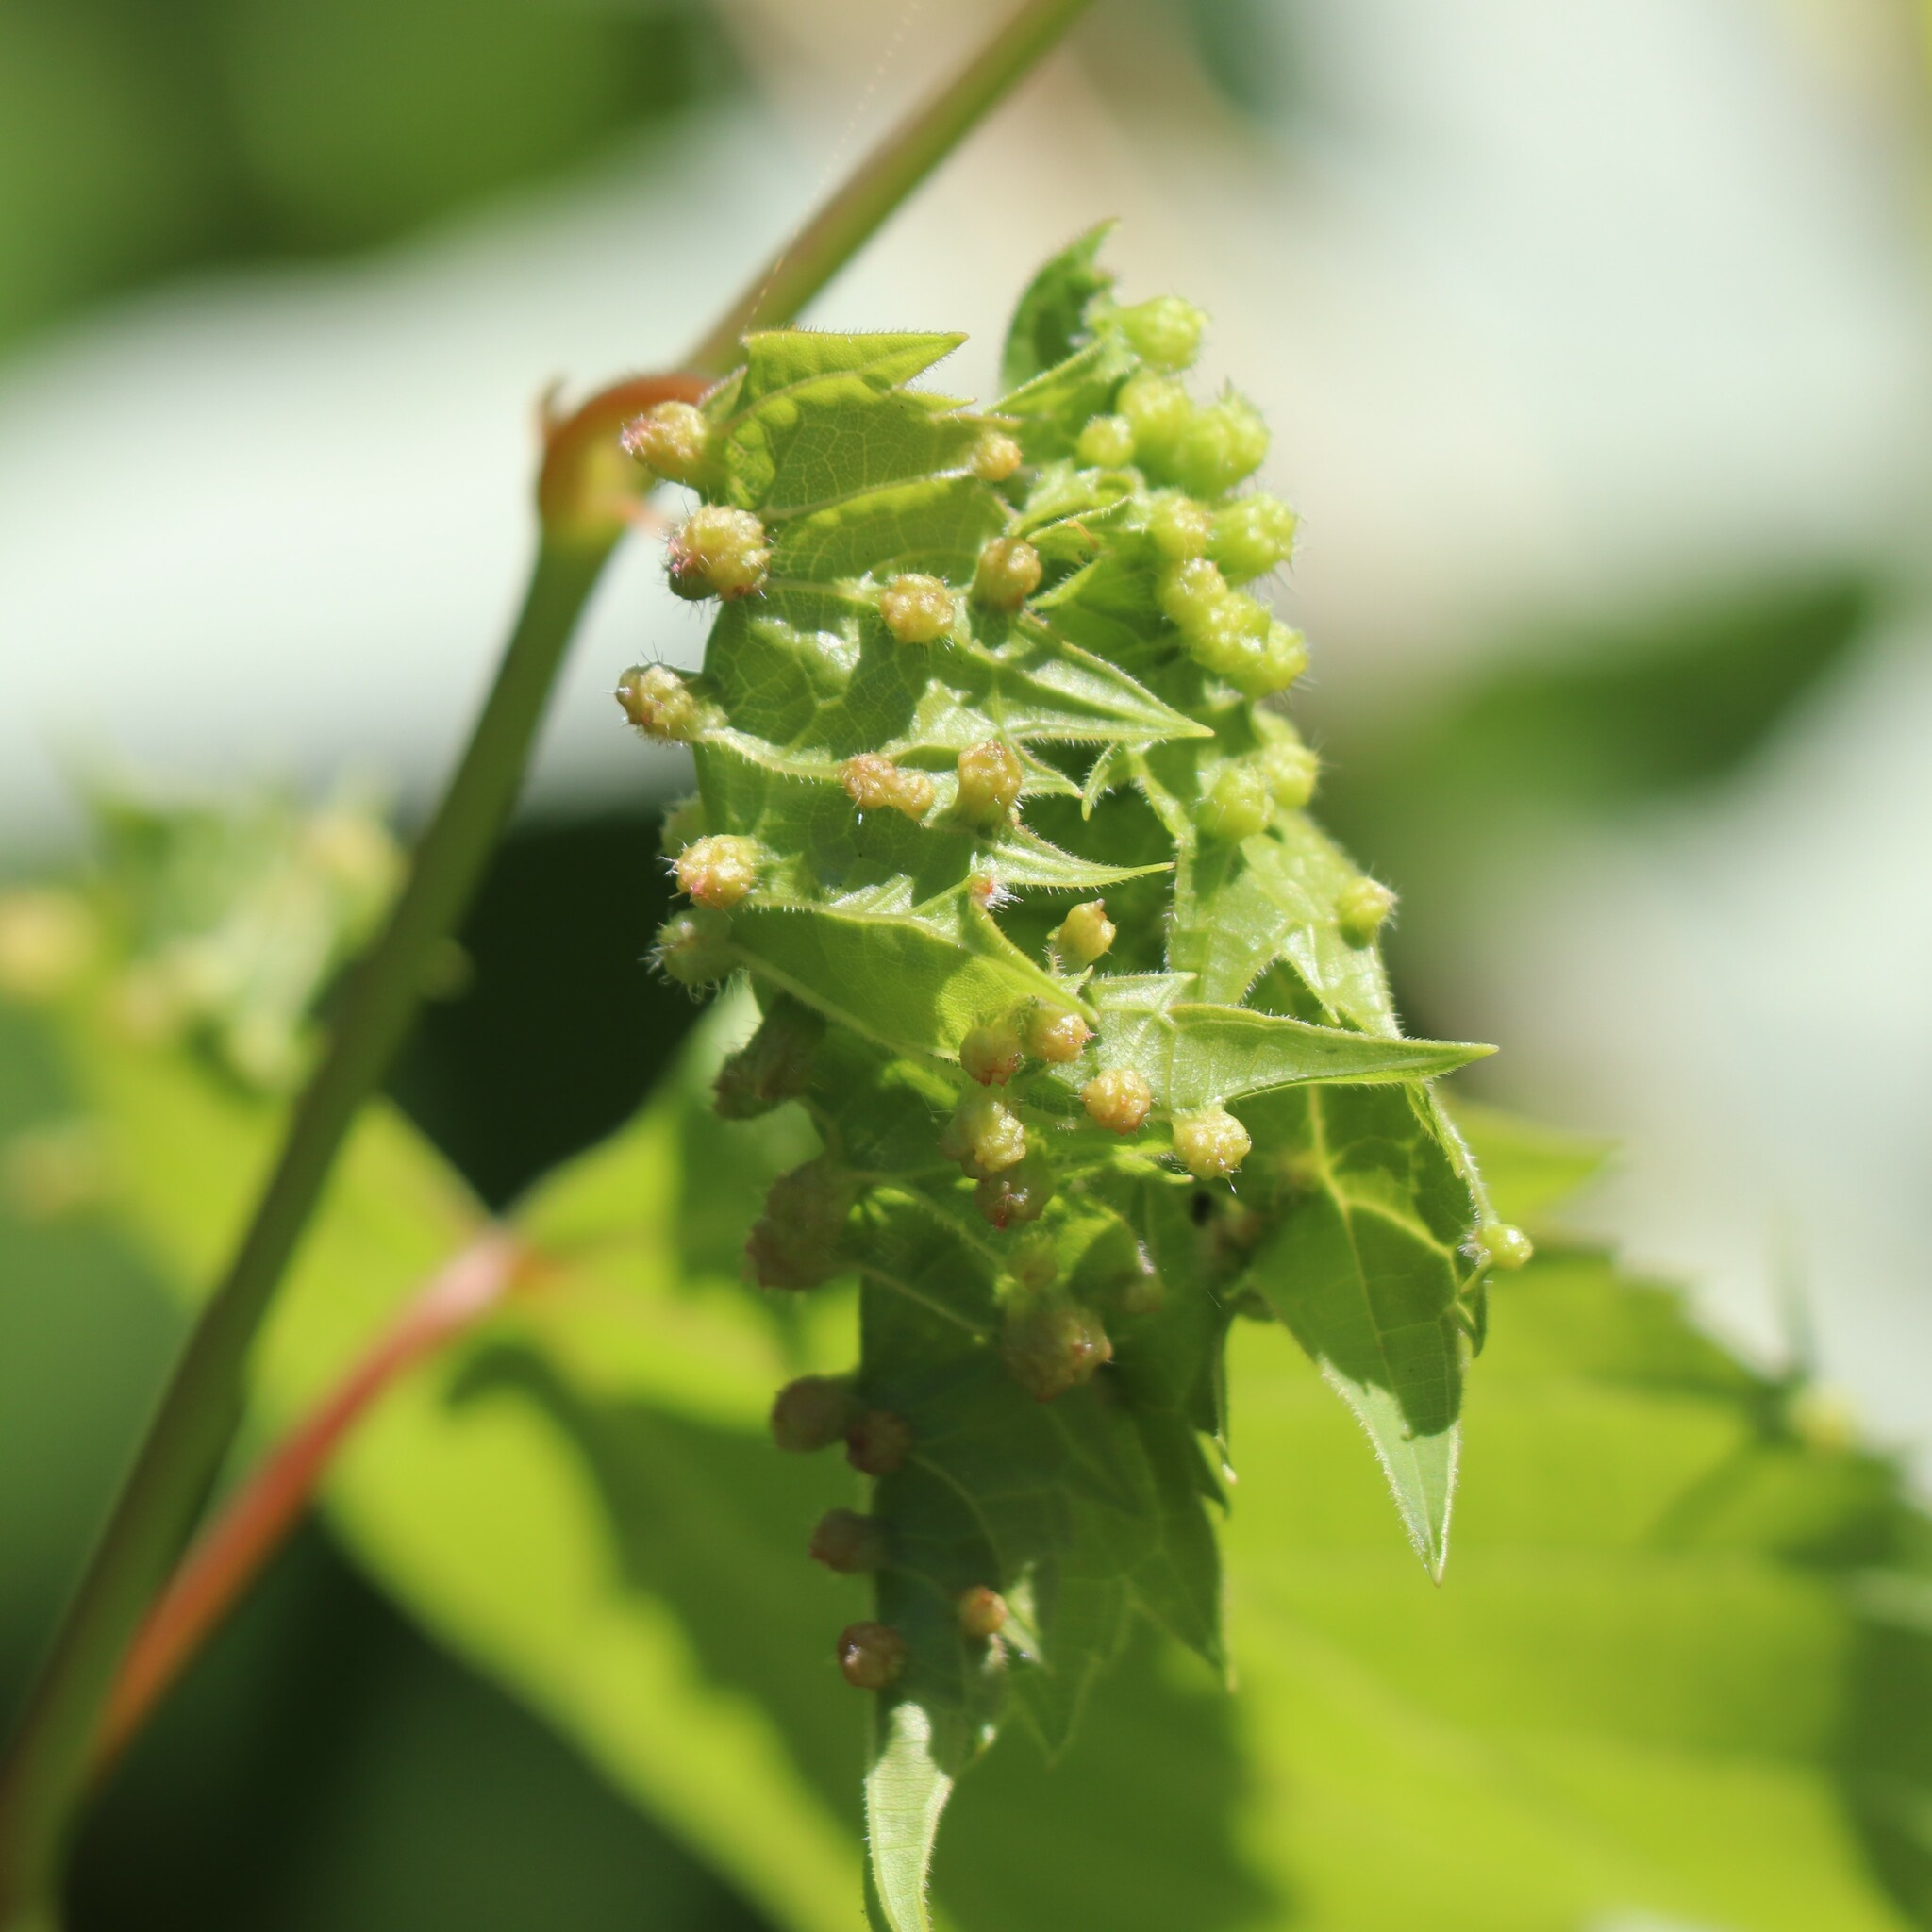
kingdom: Animalia
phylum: Arthropoda
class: Insecta
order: Hemiptera
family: Phylloxeridae
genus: Daktulosphaira
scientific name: Daktulosphaira vitifoliae
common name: Grape phylloxera
